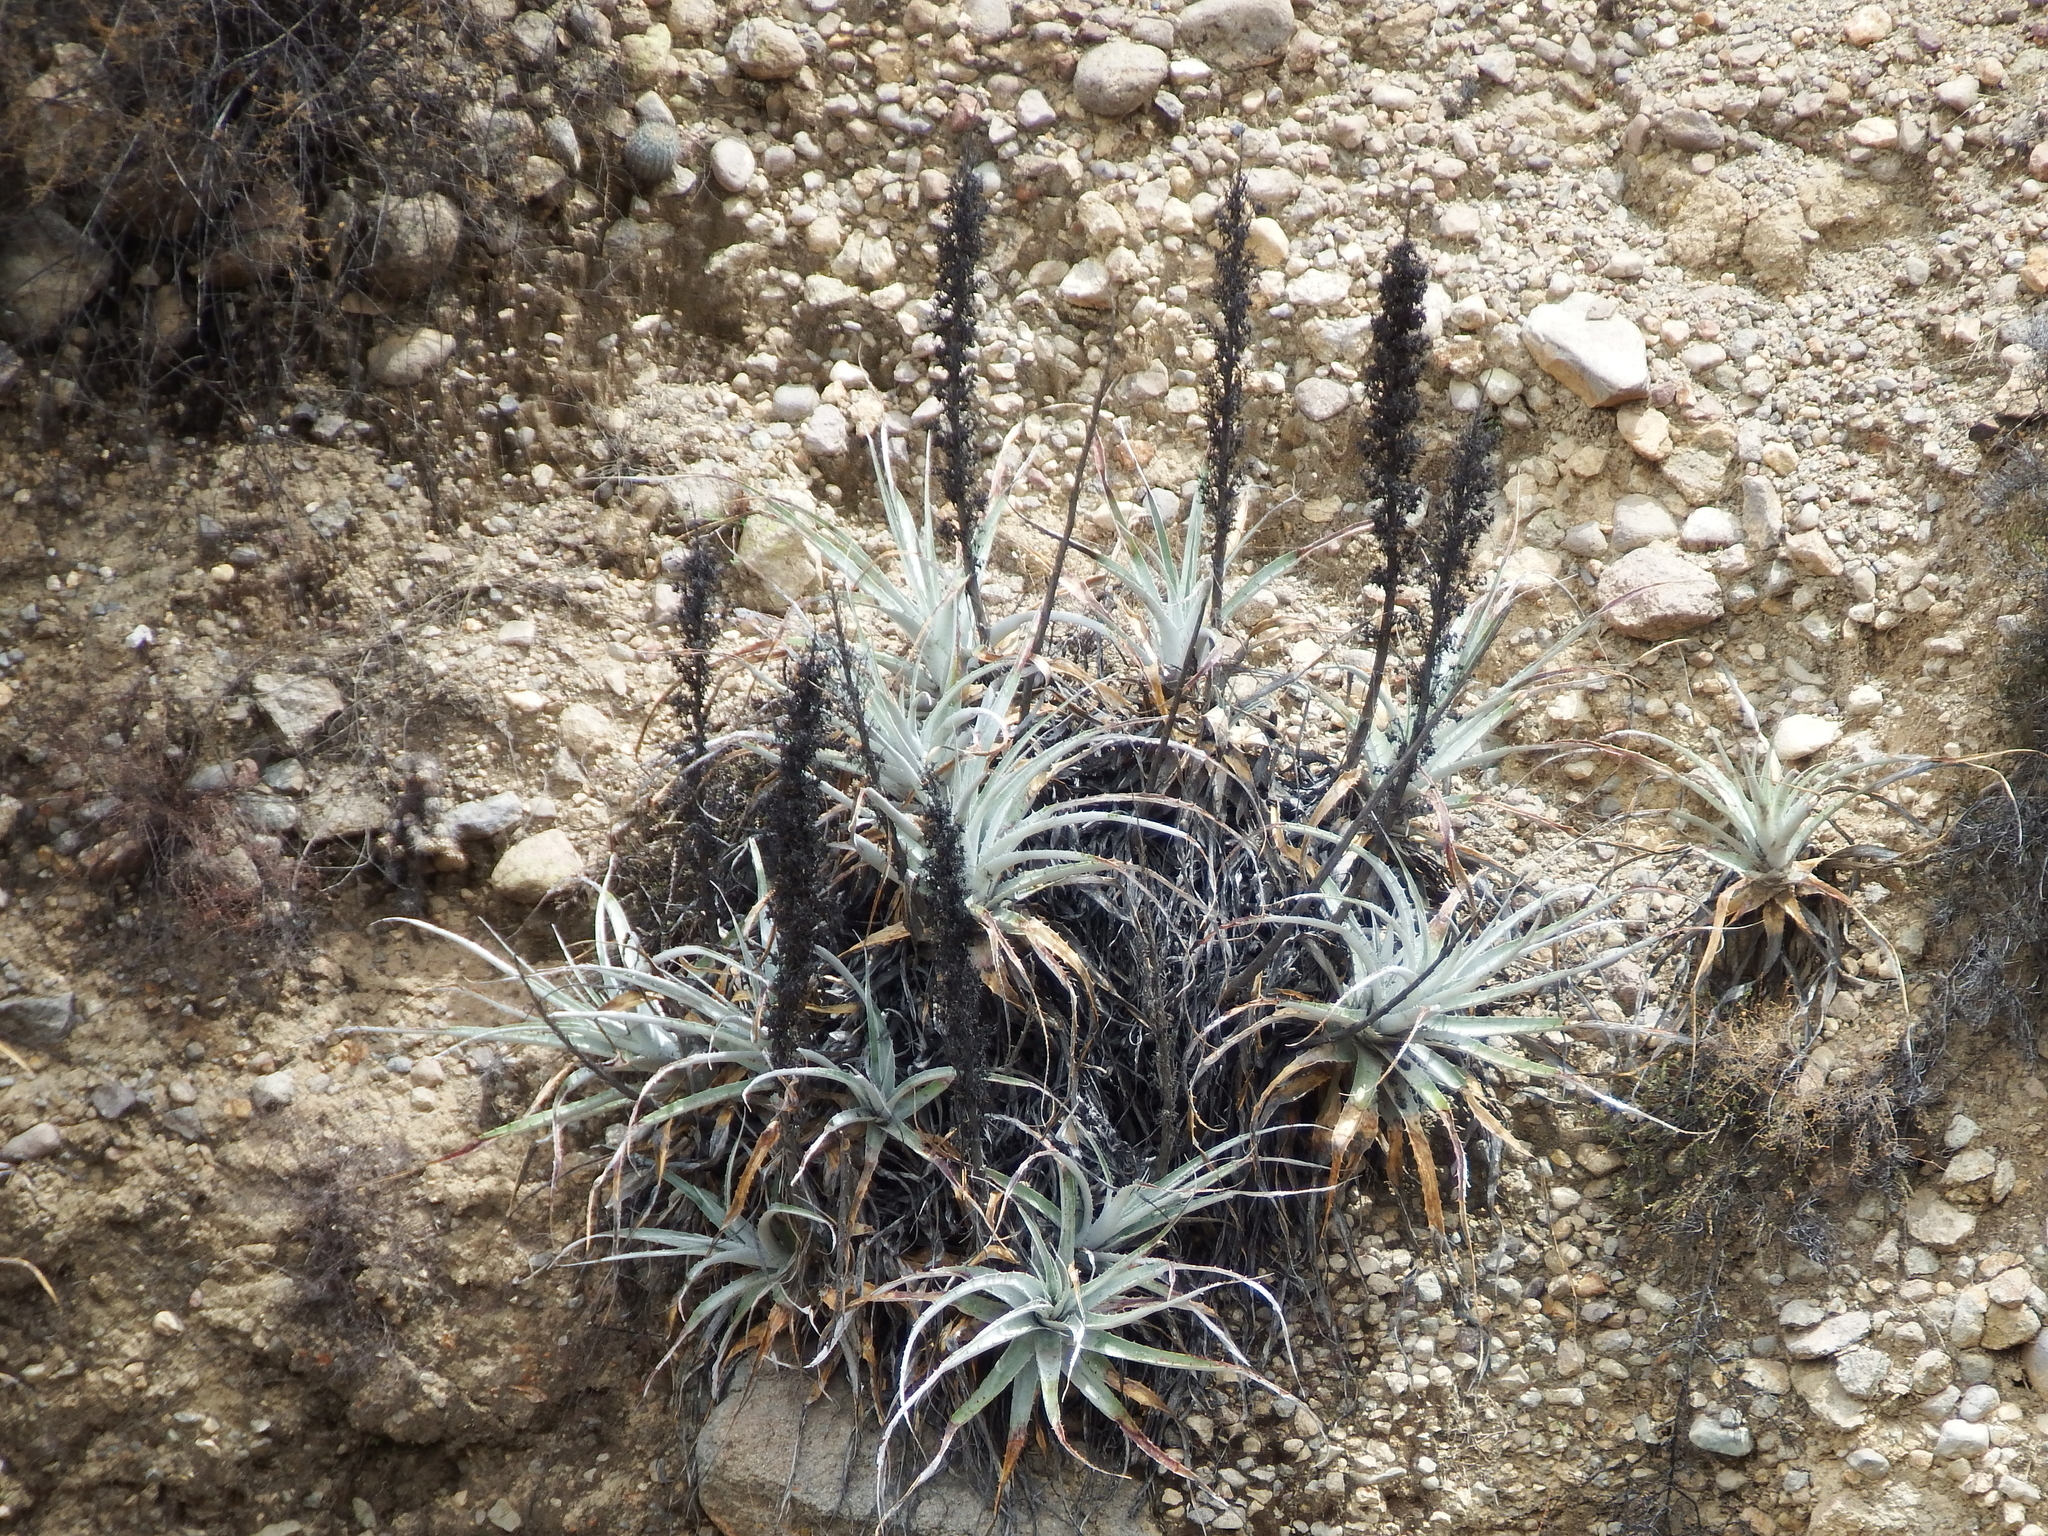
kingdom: Plantae
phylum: Tracheophyta
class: Liliopsida
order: Poales
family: Bromeliaceae
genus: Puya
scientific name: Puya cylindrica
